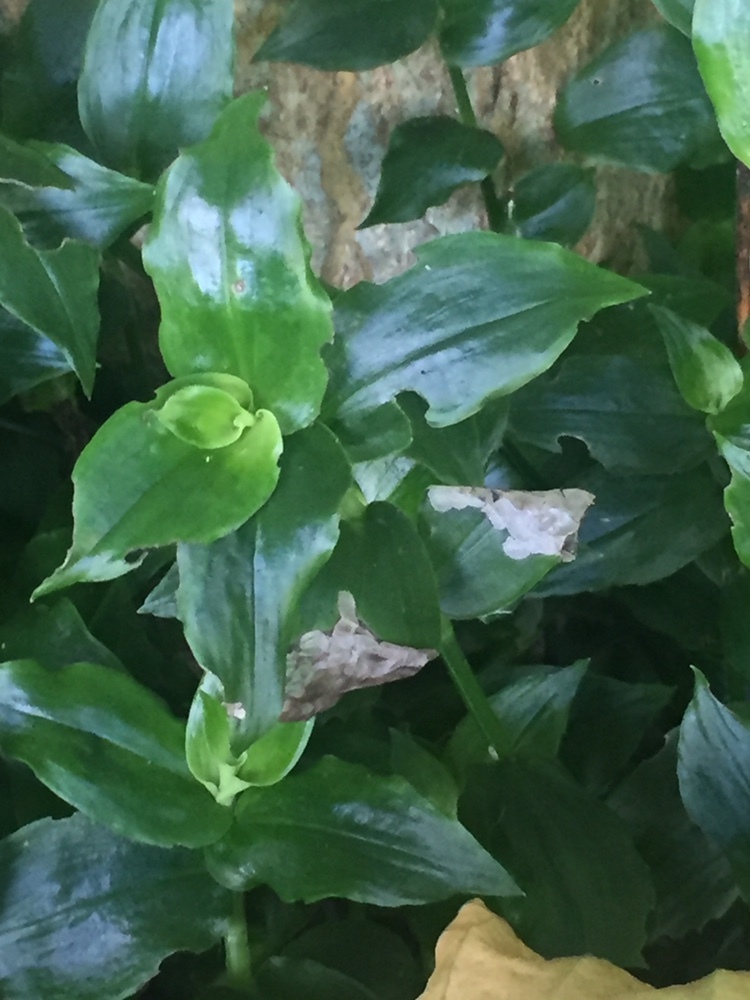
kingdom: Plantae
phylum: Tracheophyta
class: Liliopsida
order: Commelinales
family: Commelinaceae
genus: Tradescantia
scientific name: Tradescantia fluminensis
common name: Wandering-jew
